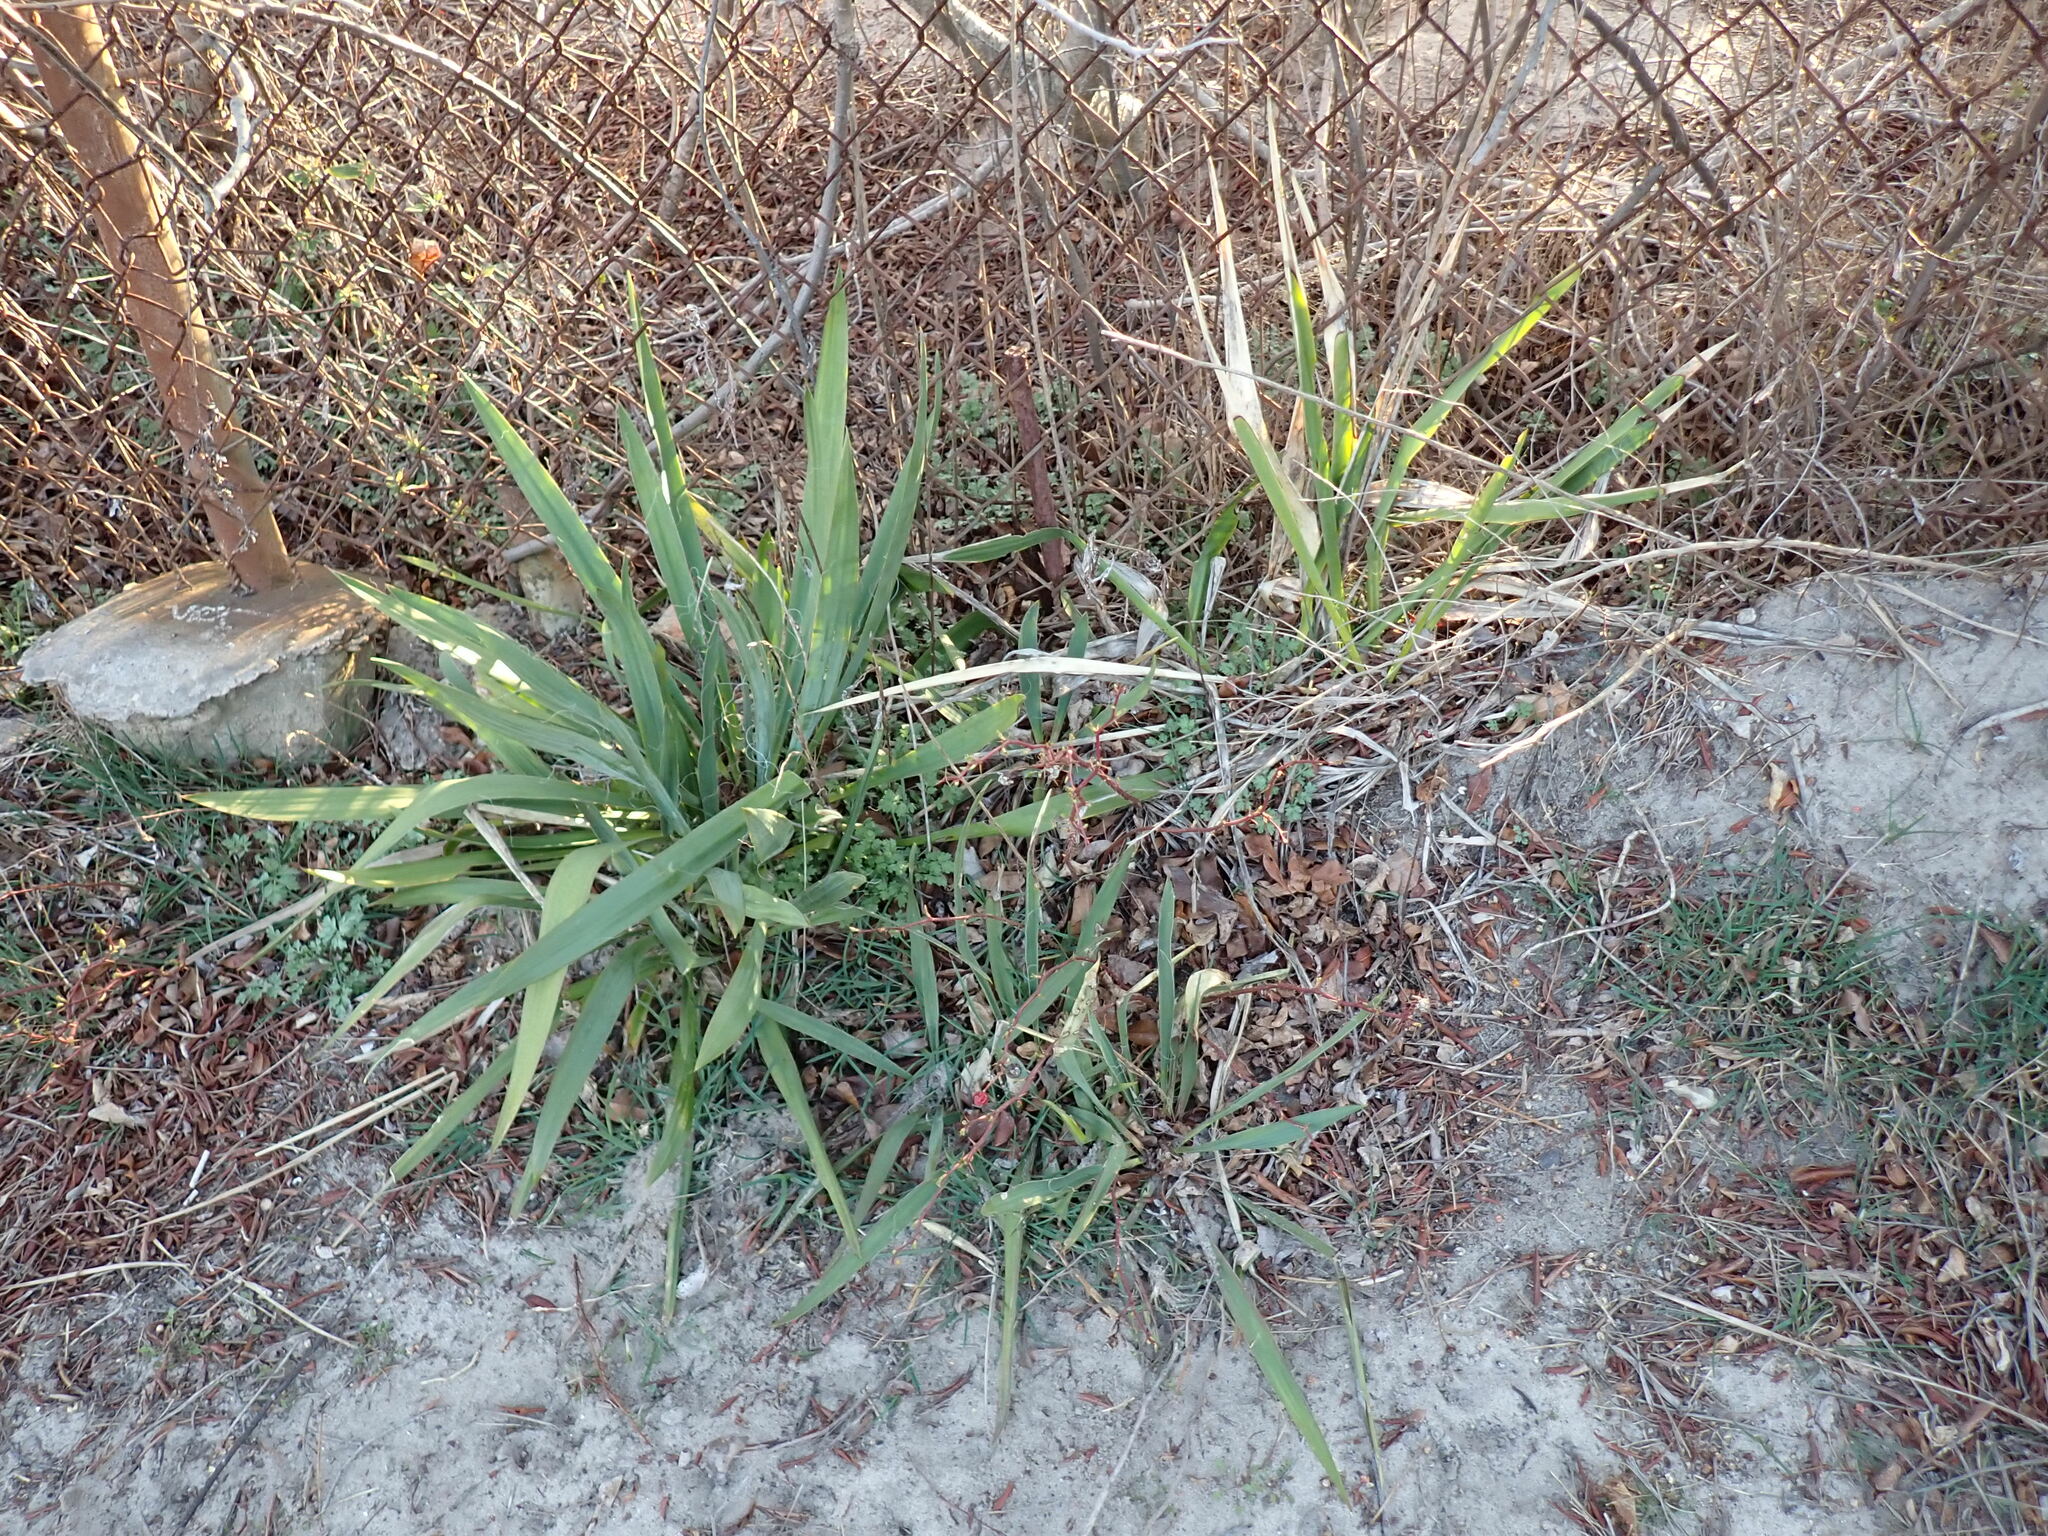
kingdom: Plantae
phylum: Tracheophyta
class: Liliopsida
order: Asparagales
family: Asparagaceae
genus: Yucca
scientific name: Yucca filamentosa
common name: Adam's-needle
